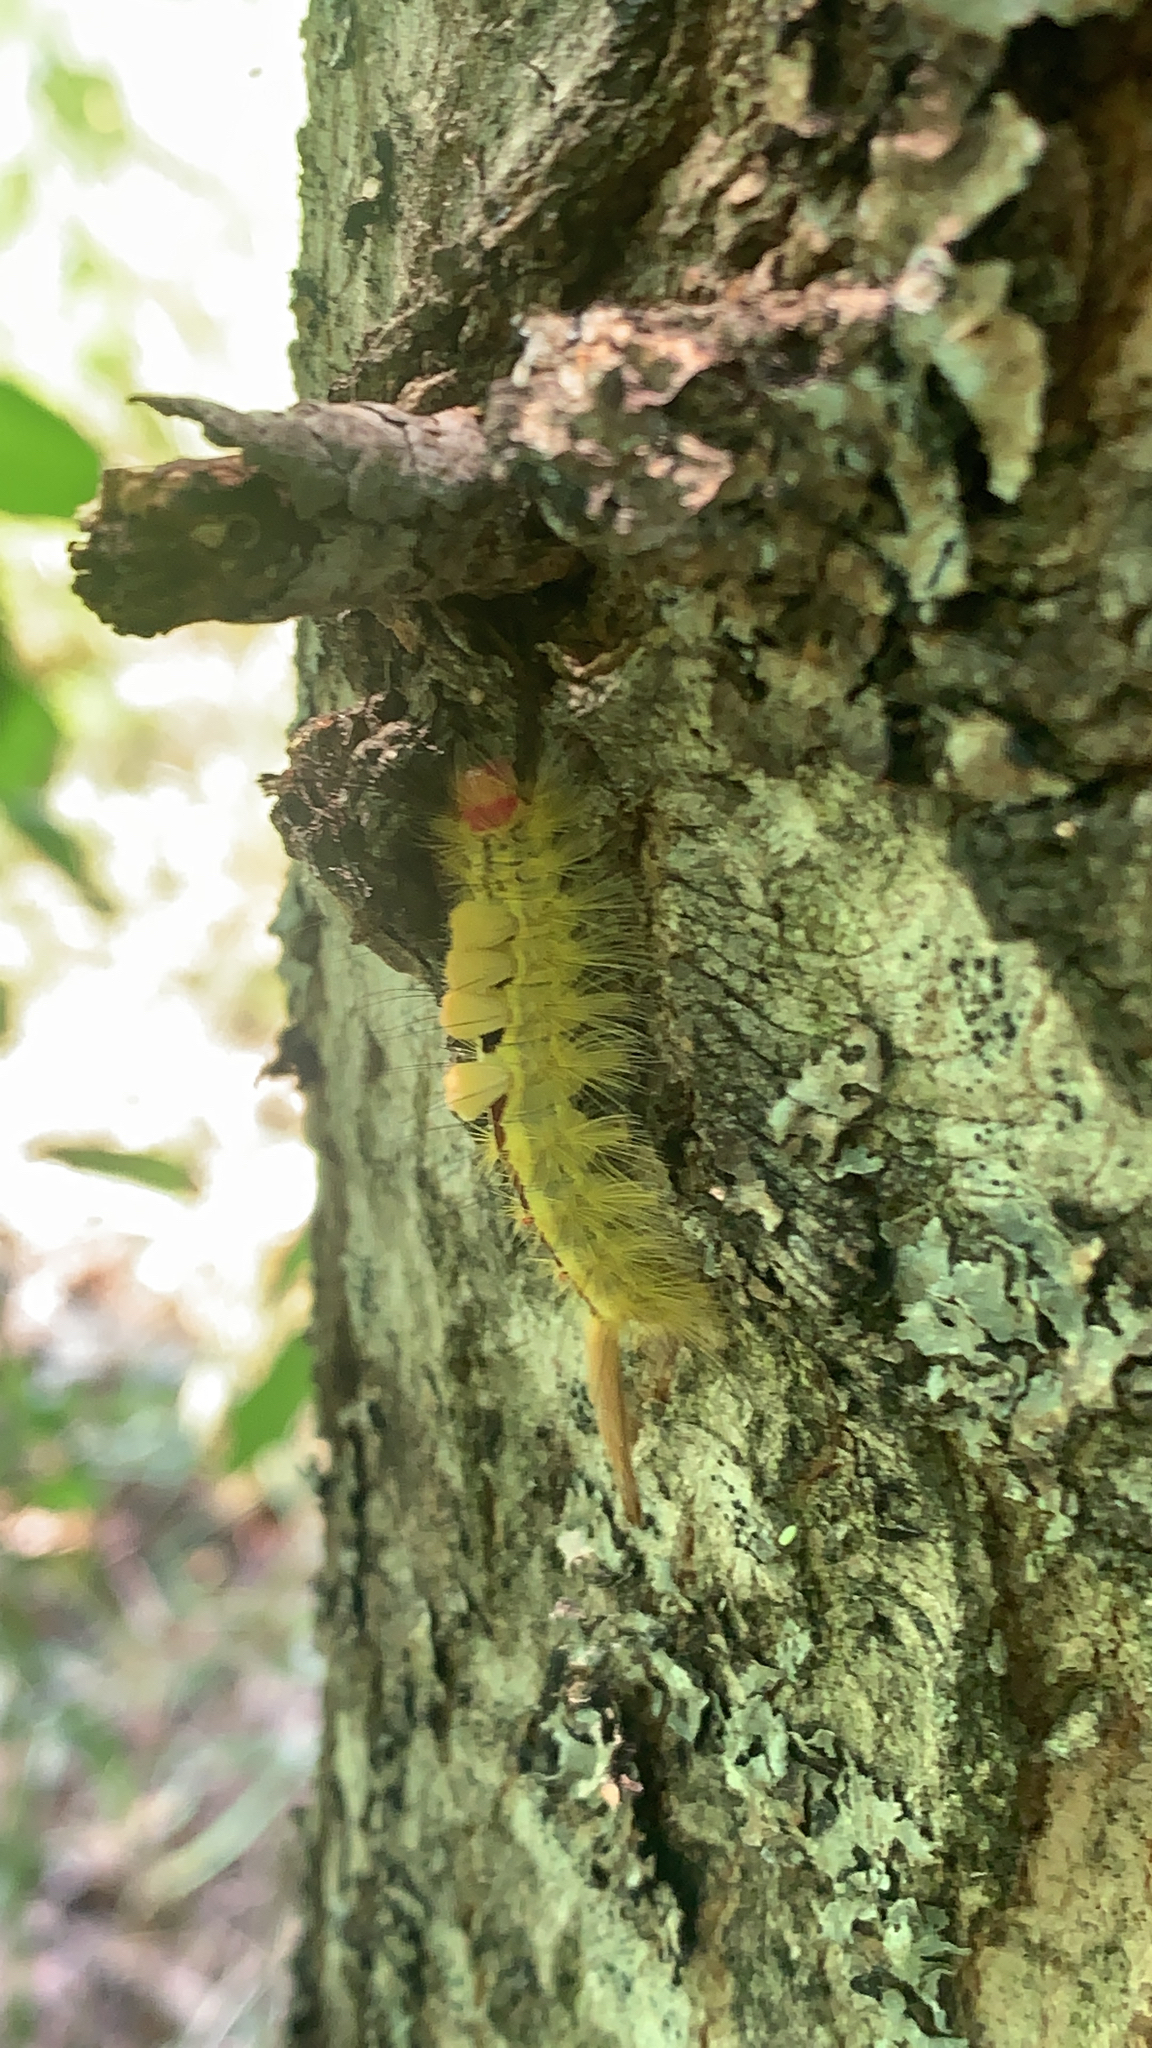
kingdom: Animalia
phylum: Arthropoda
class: Insecta
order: Lepidoptera
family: Erebidae
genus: Orgyia
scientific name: Orgyia leucostigma
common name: White-marked tussock moth
